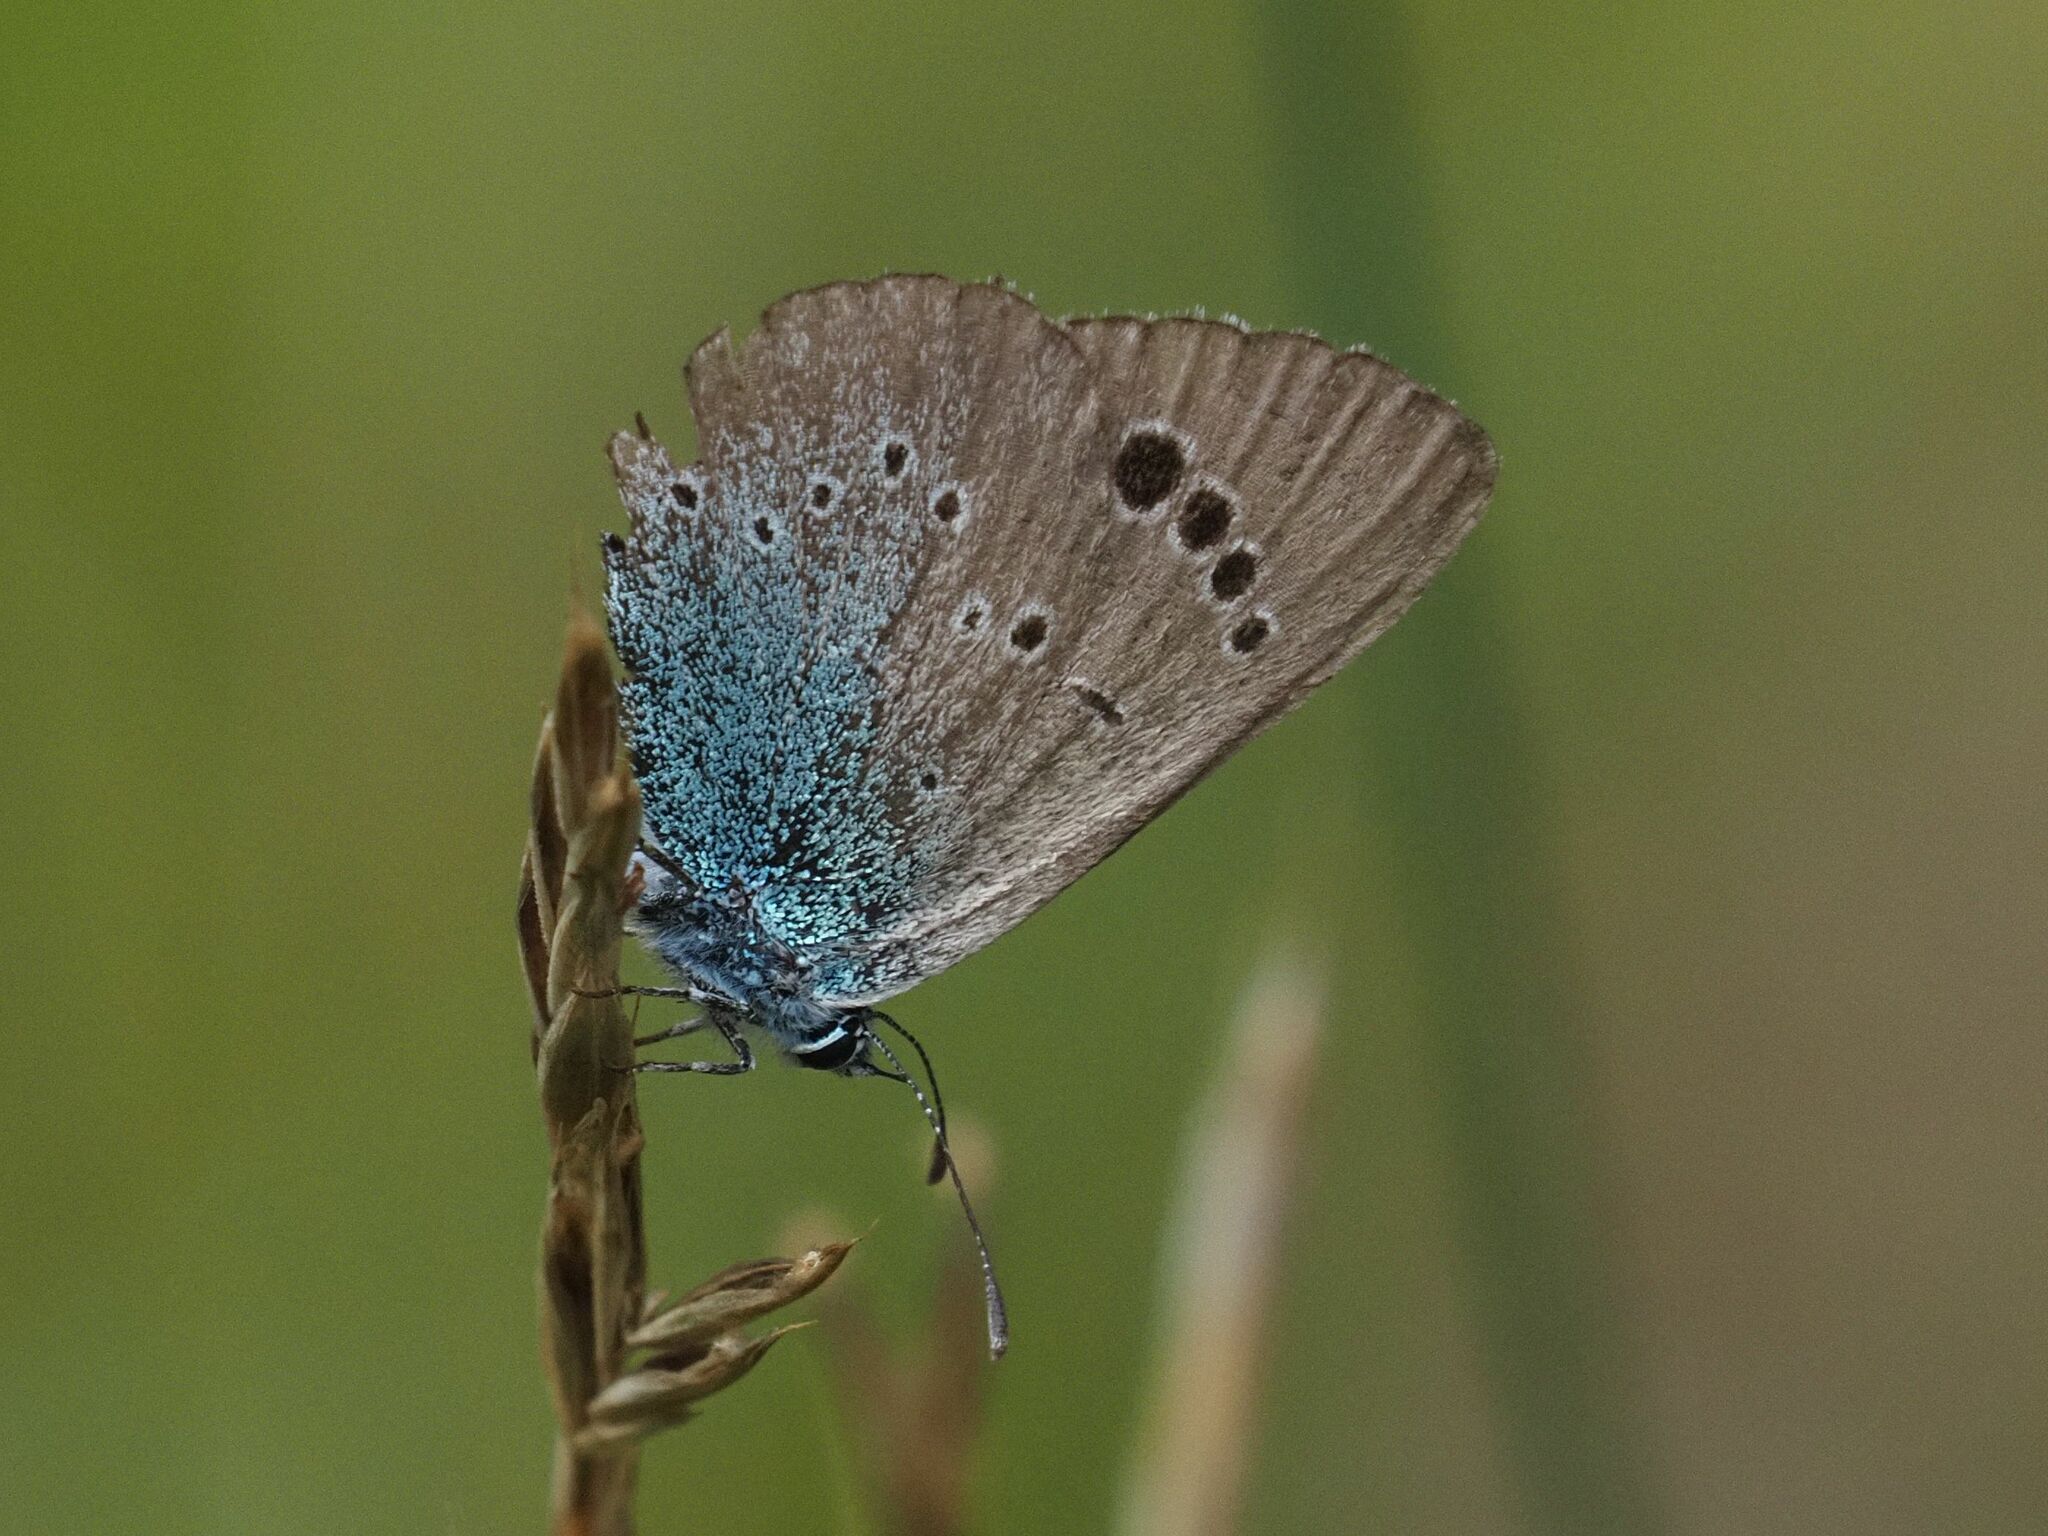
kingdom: Animalia
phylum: Arthropoda
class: Insecta
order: Lepidoptera
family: Lycaenidae
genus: Glaucopsyche
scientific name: Glaucopsyche alexis
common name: Green-underside blue
